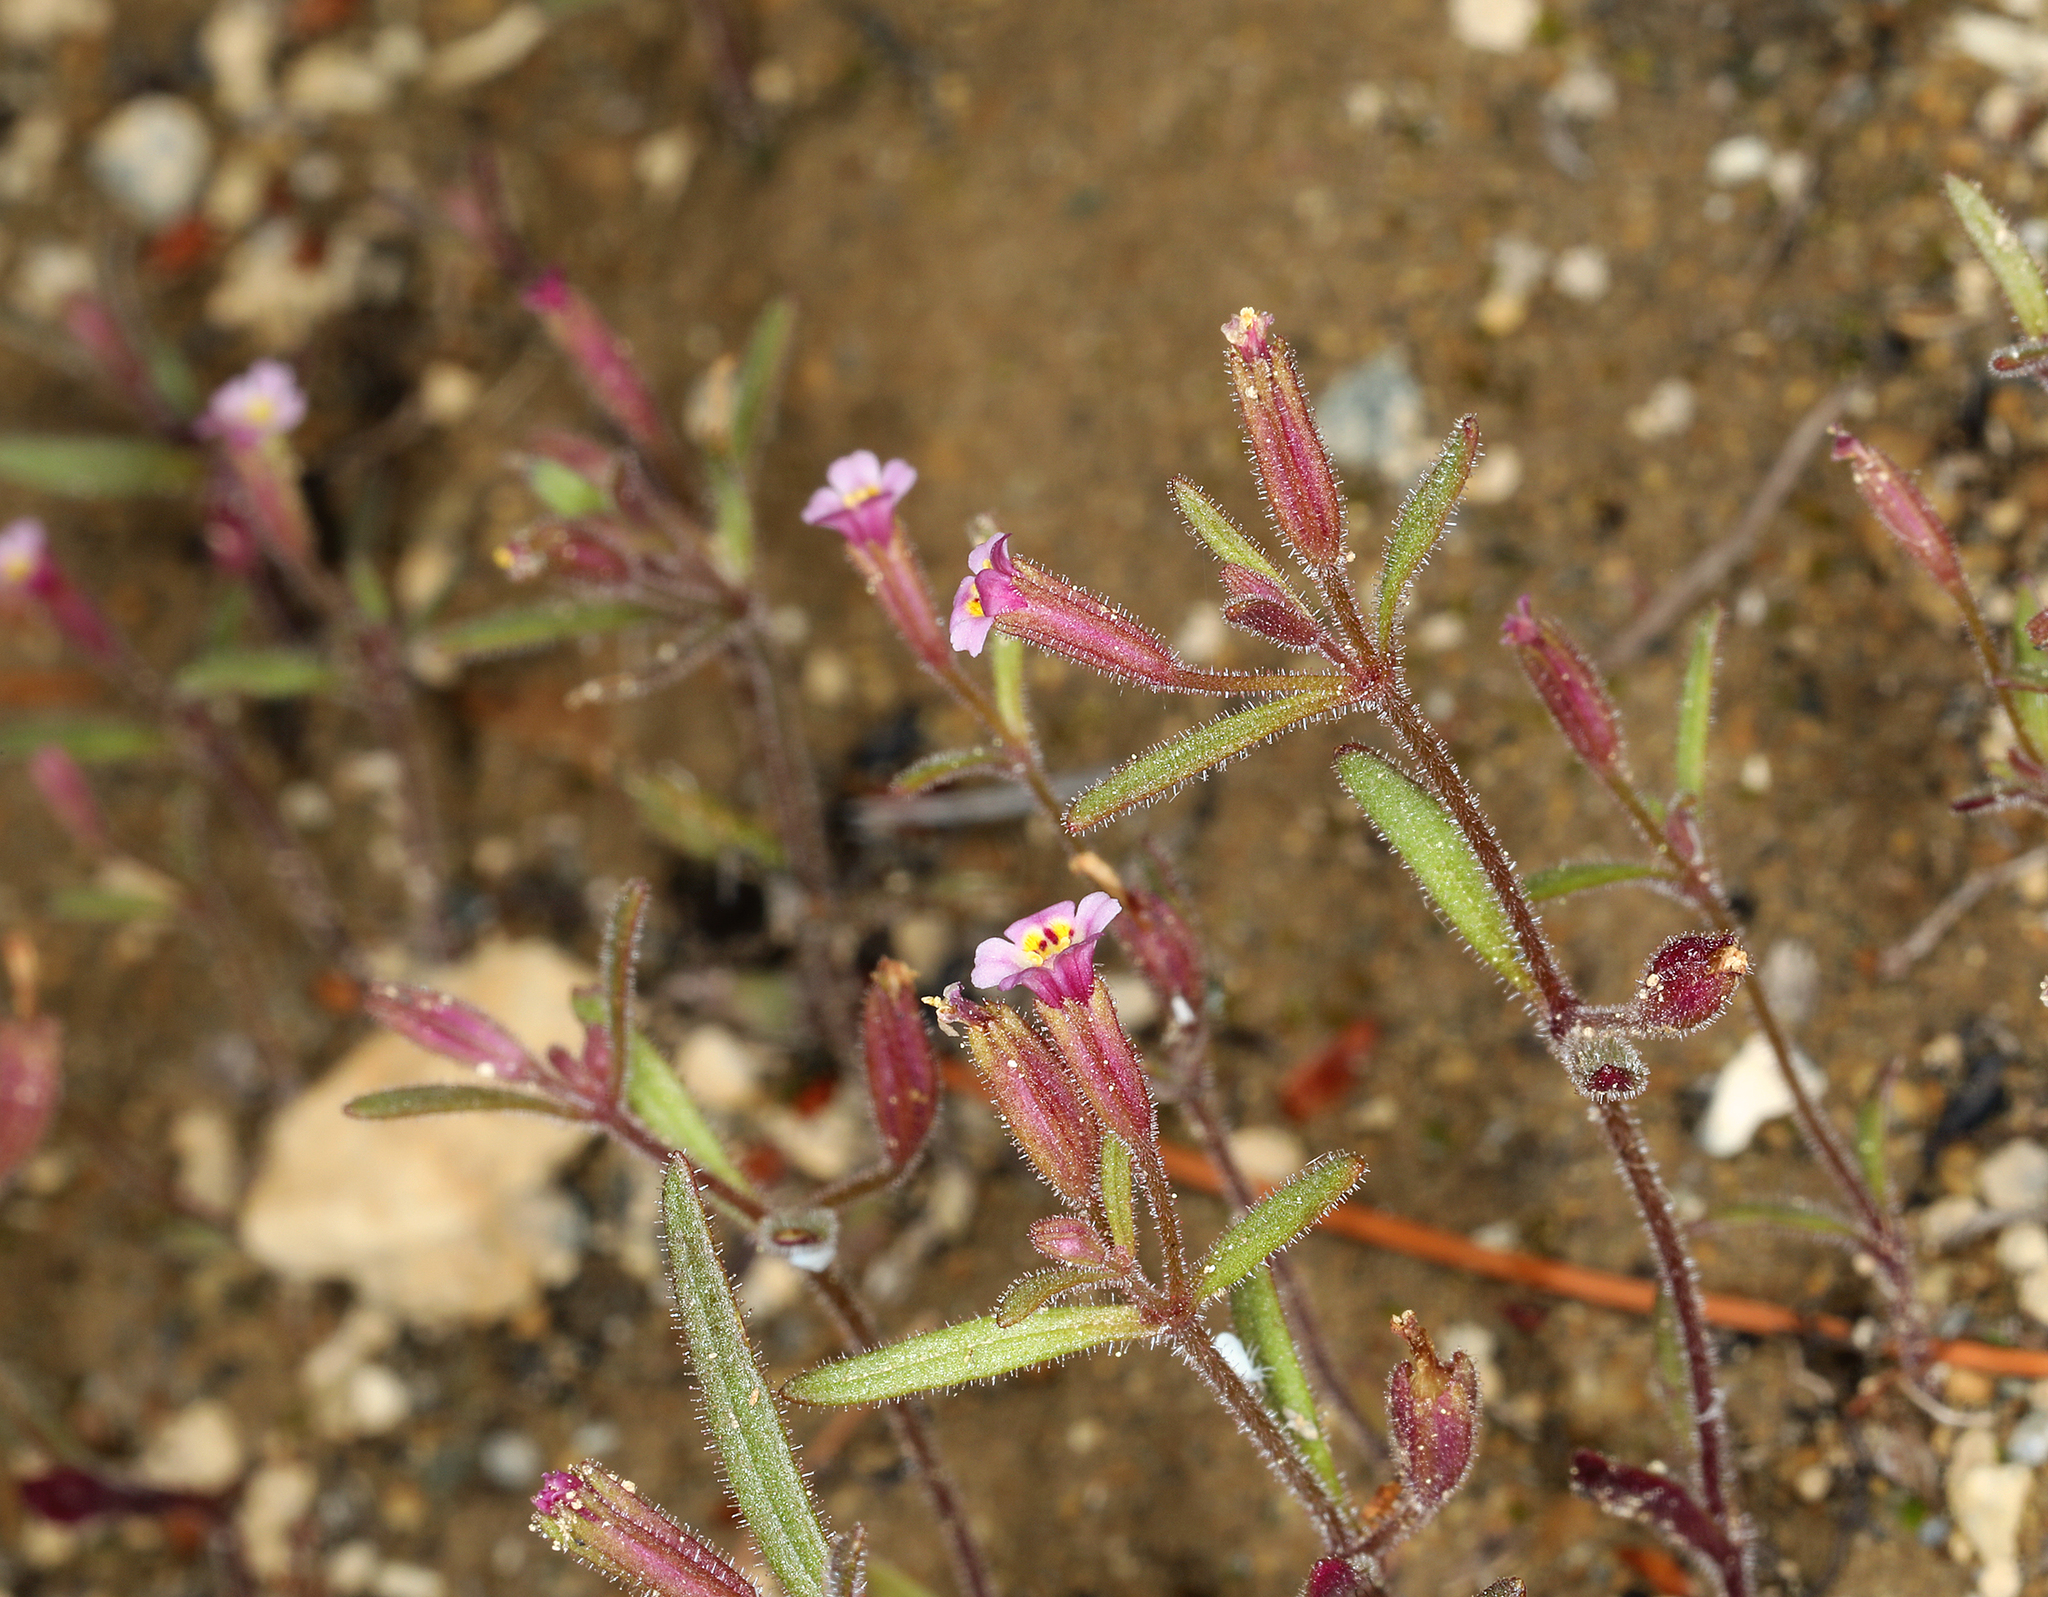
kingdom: Plantae
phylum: Tracheophyta
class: Magnoliopsida
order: Lamiales
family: Phrymaceae
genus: Erythranthe
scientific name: Erythranthe breweri
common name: Brewer's monkeyflower
